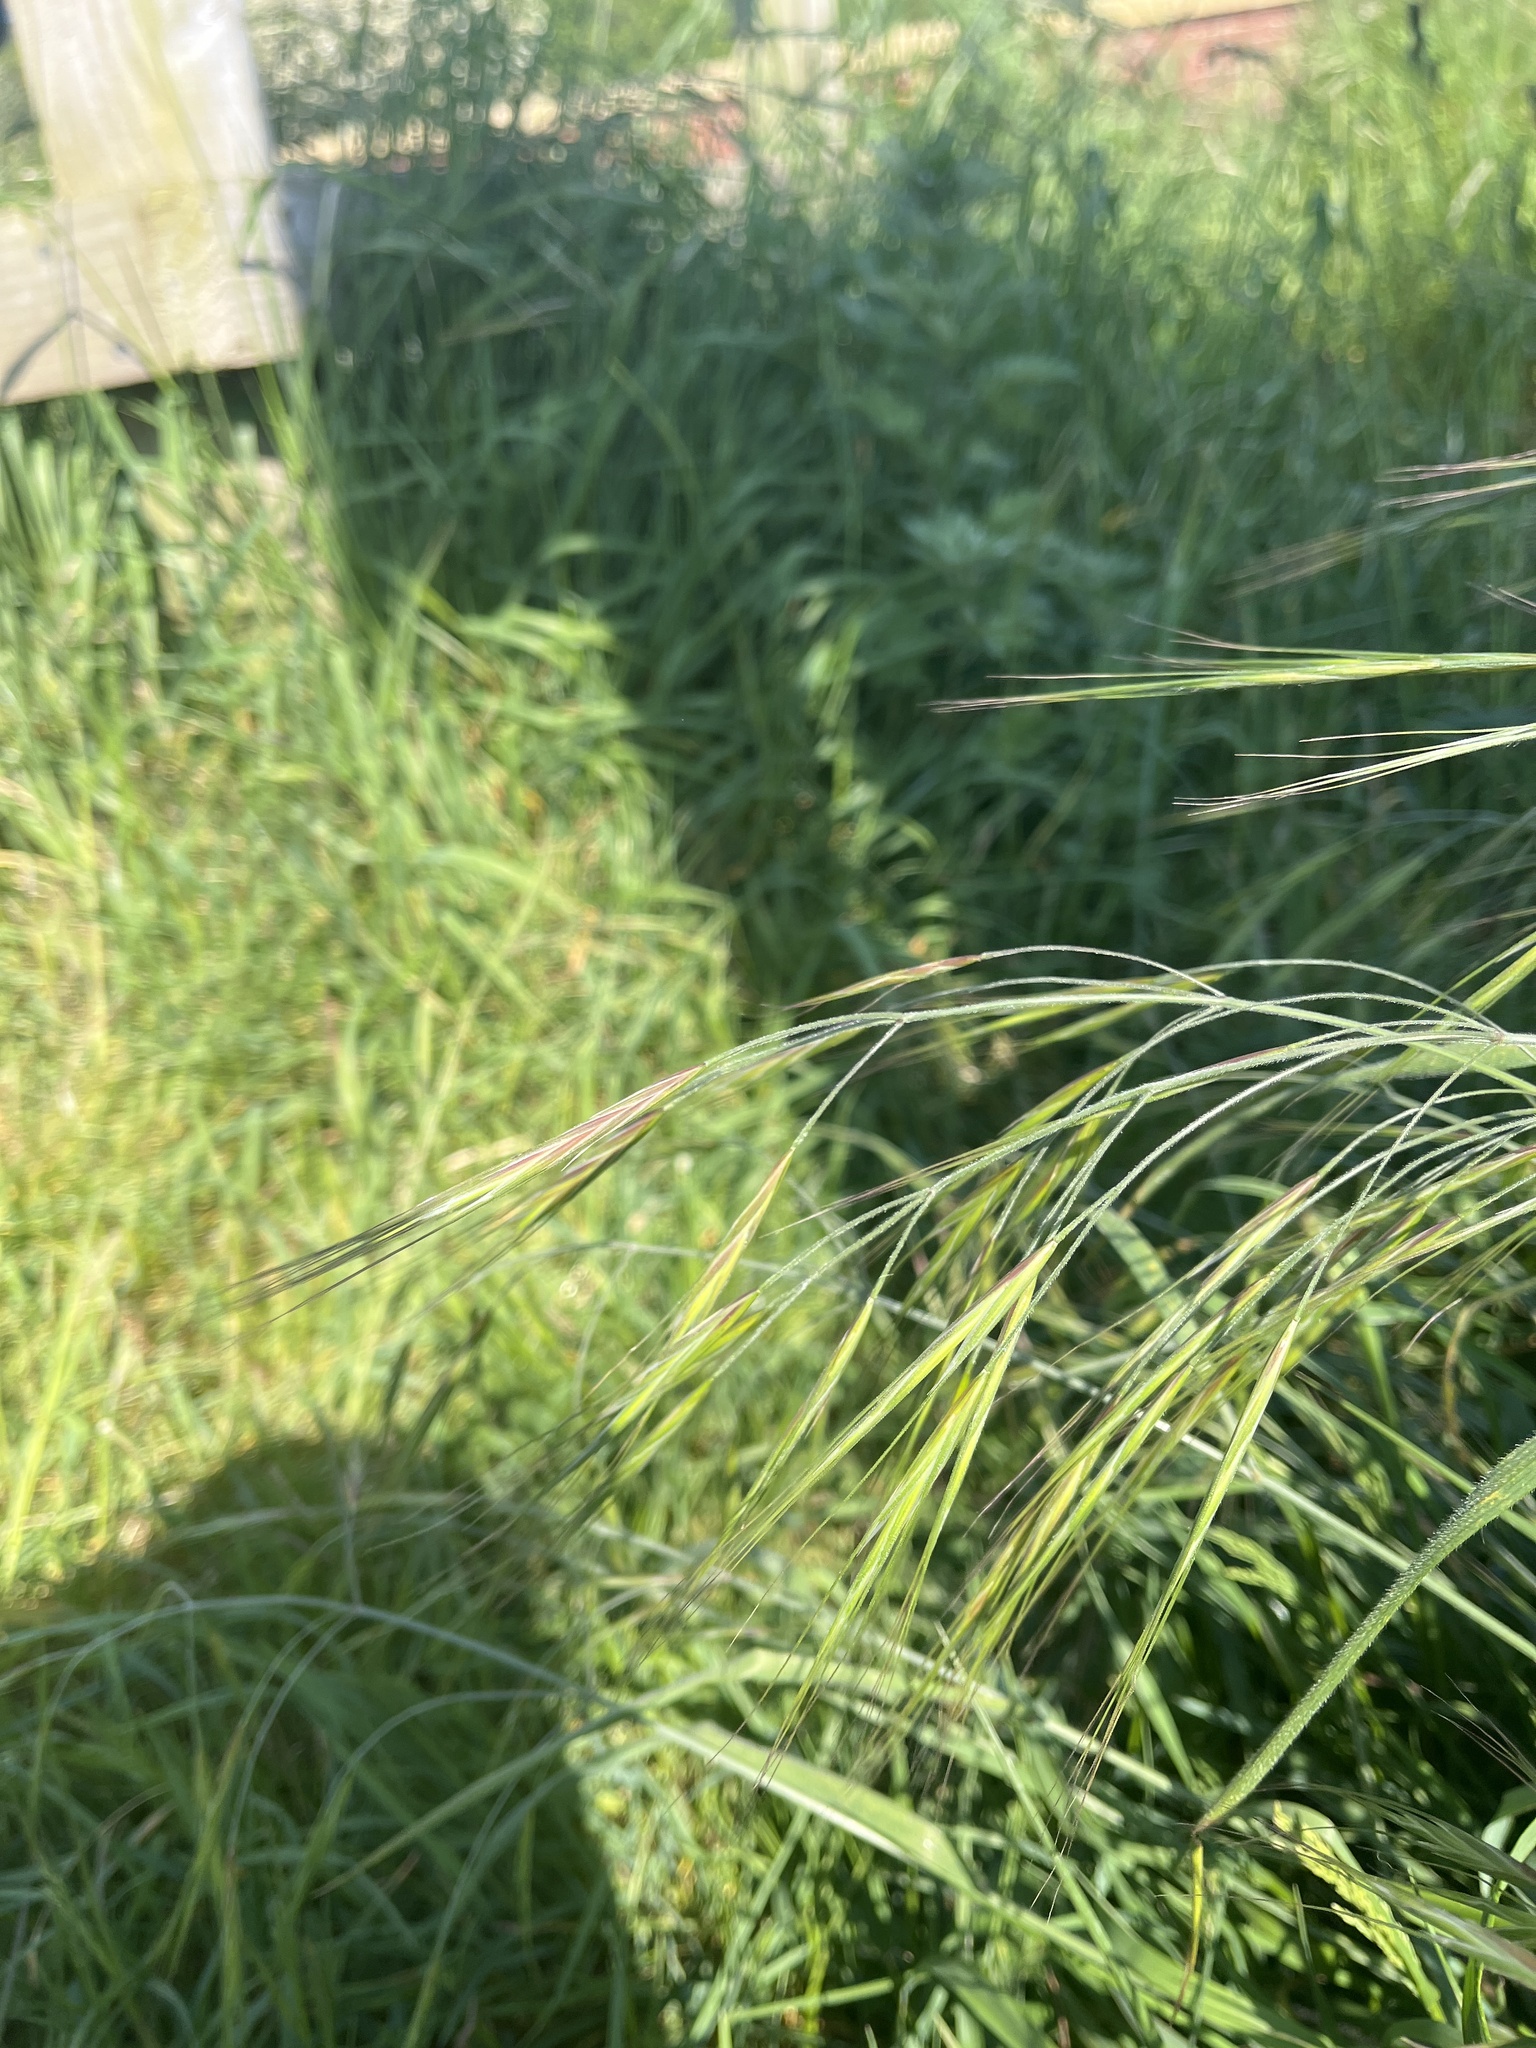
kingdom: Plantae
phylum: Tracheophyta
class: Liliopsida
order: Poales
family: Poaceae
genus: Bromus
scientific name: Bromus diandrus
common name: Ripgut brome
